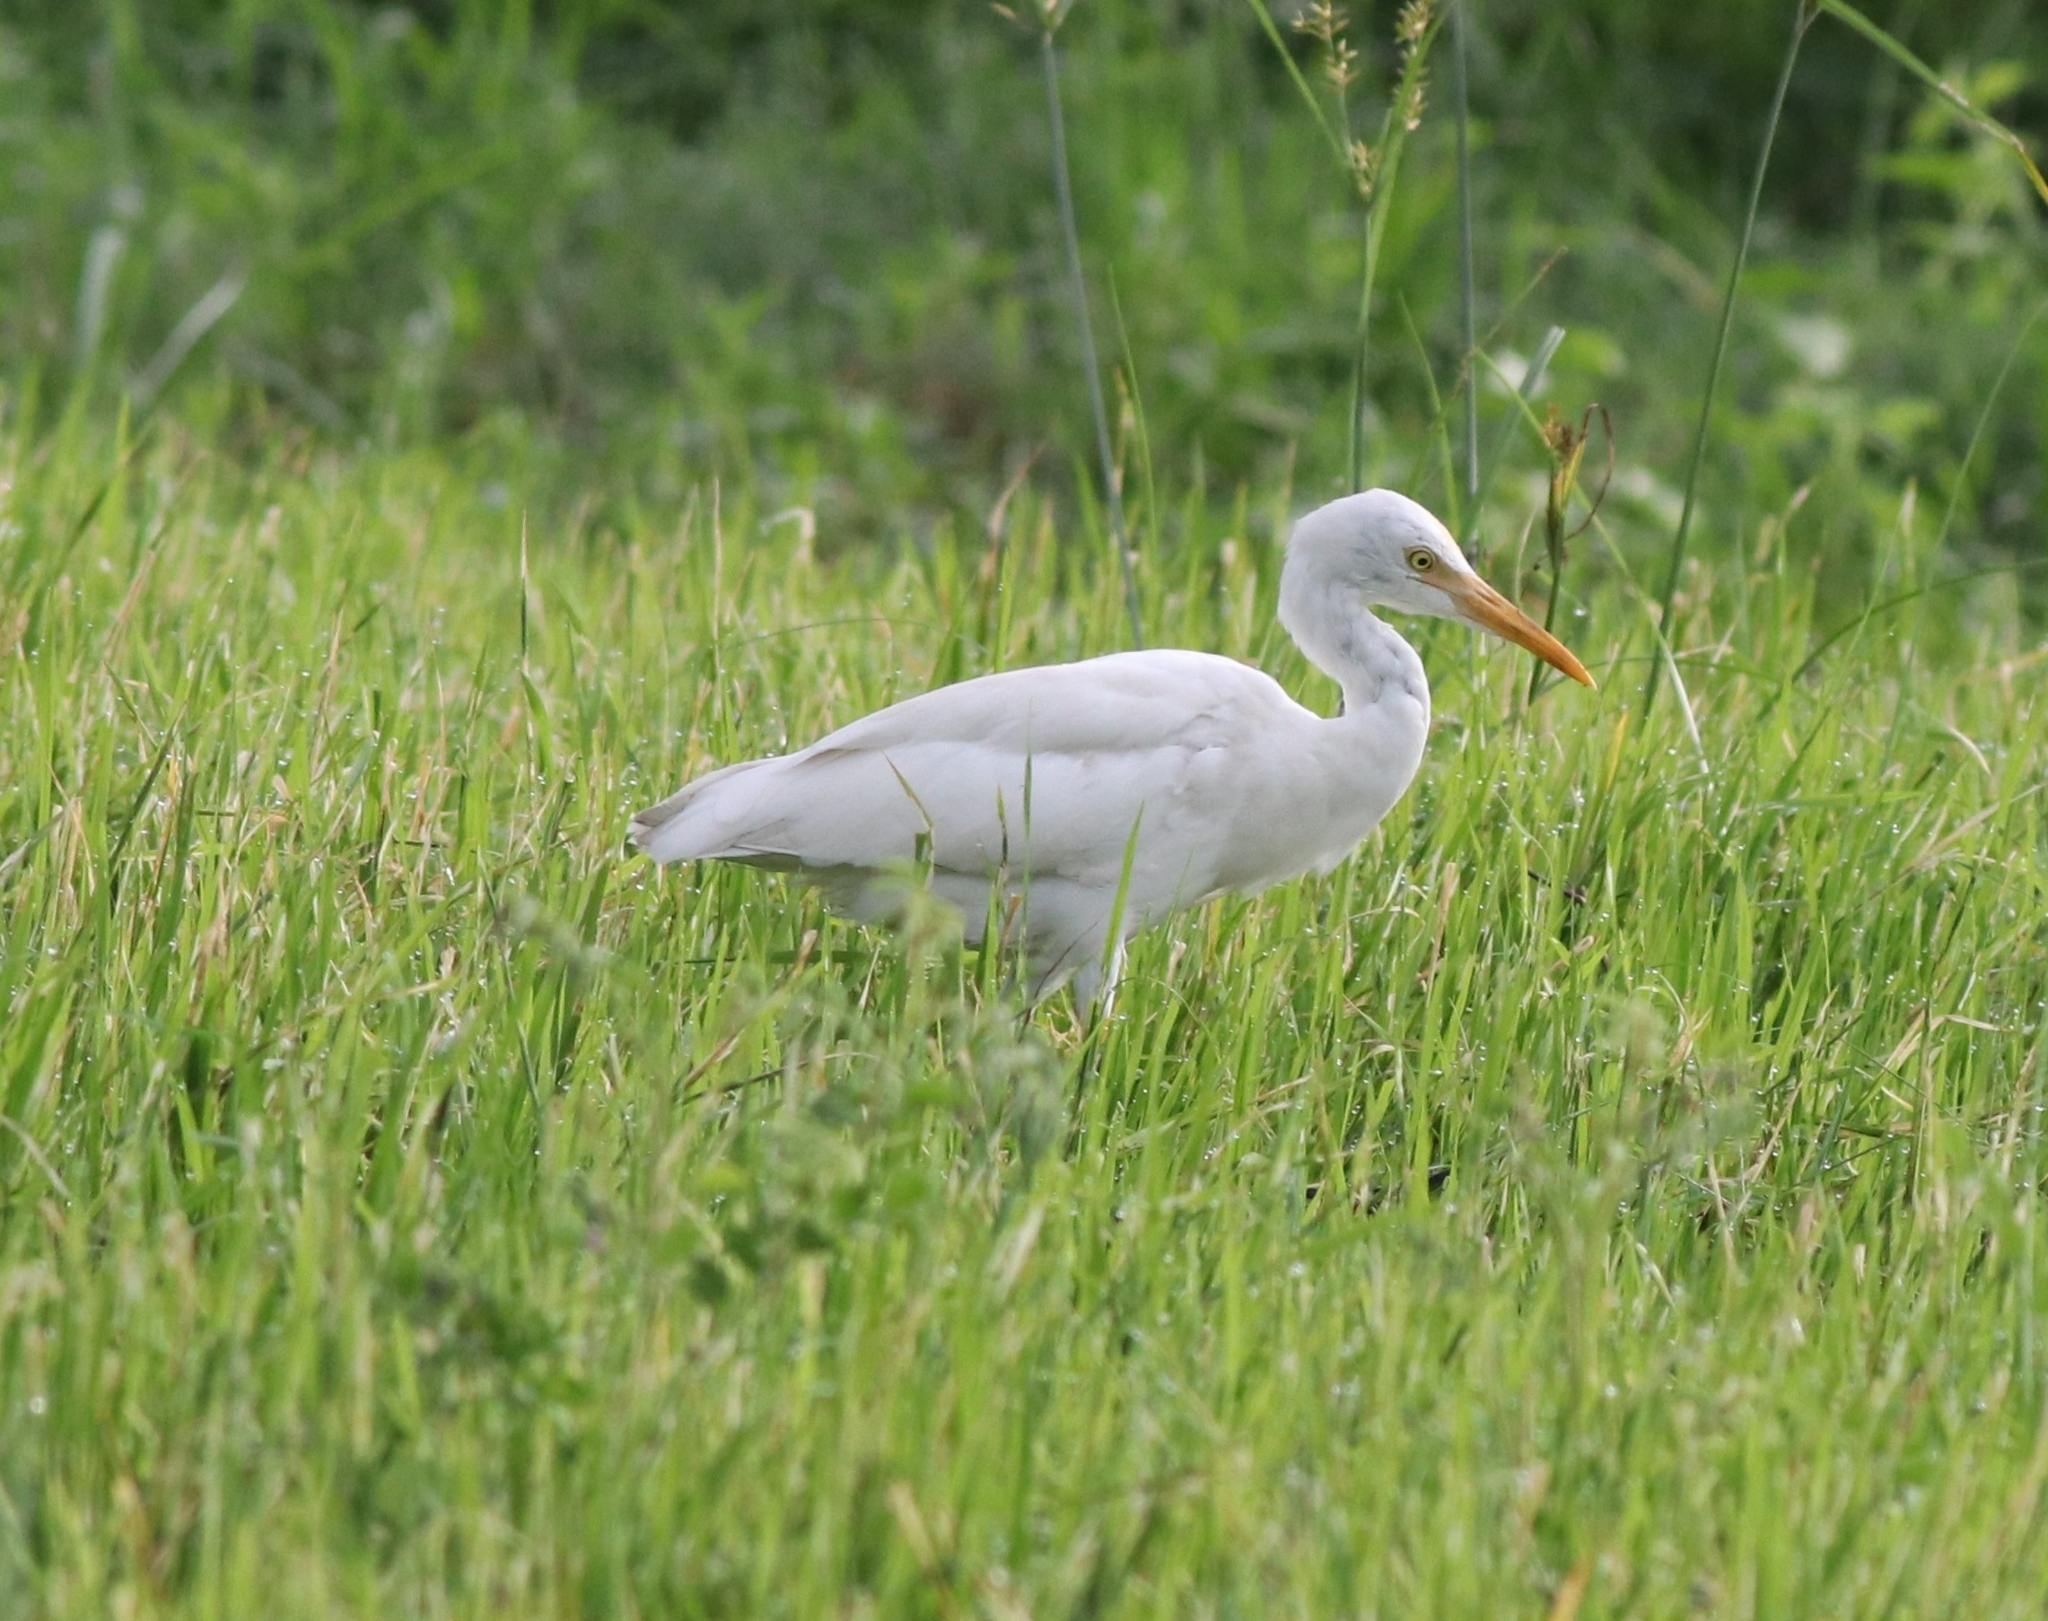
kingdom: Animalia
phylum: Chordata
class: Aves
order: Pelecaniformes
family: Ardeidae
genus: Bubulcus
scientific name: Bubulcus coromandus
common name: Eastern cattle egret
